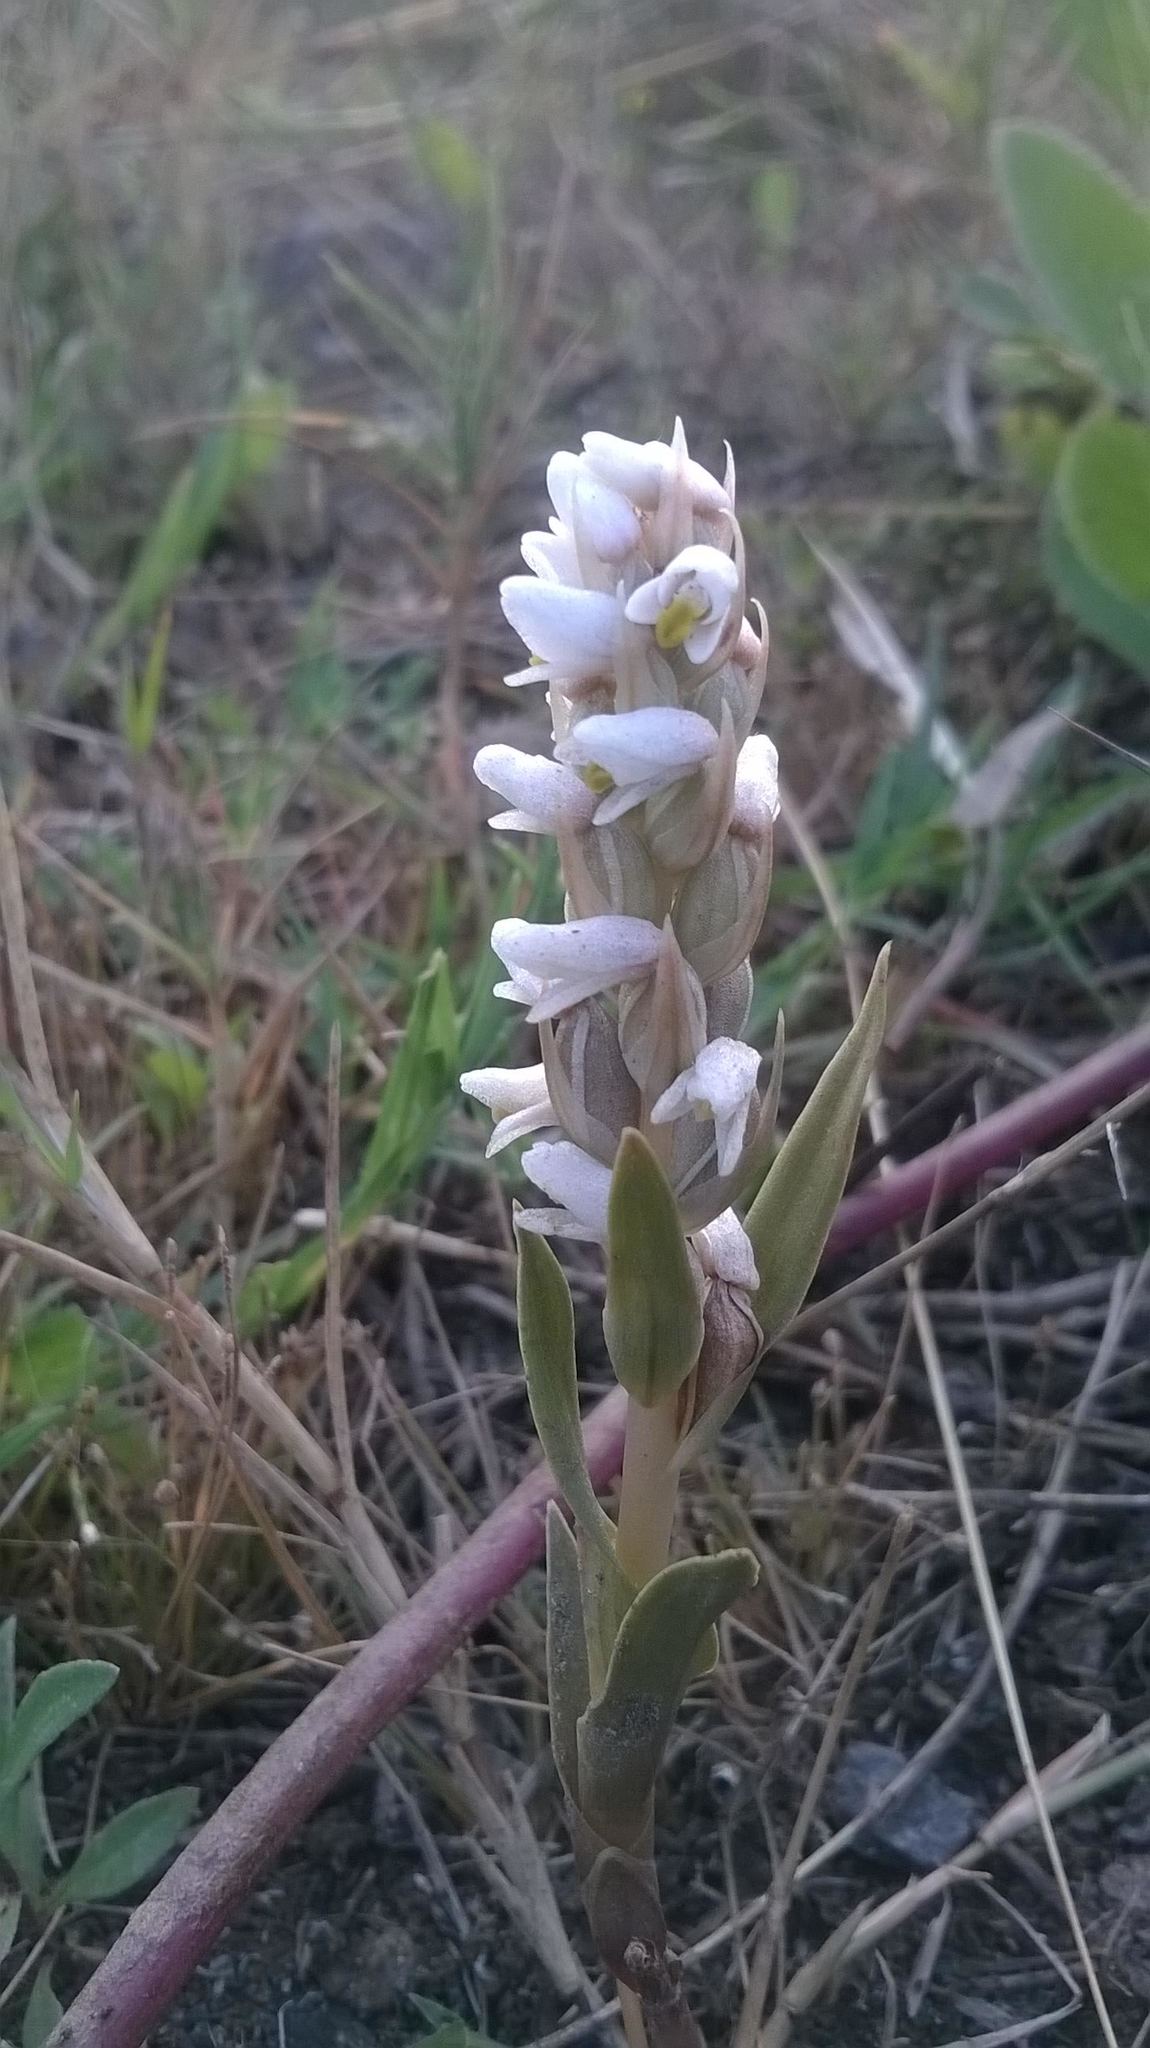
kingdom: Plantae
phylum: Tracheophyta
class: Liliopsida
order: Asparagales
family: Orchidaceae
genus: Zeuxine
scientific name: Zeuxine strateumatica
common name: Soldier's orchid
